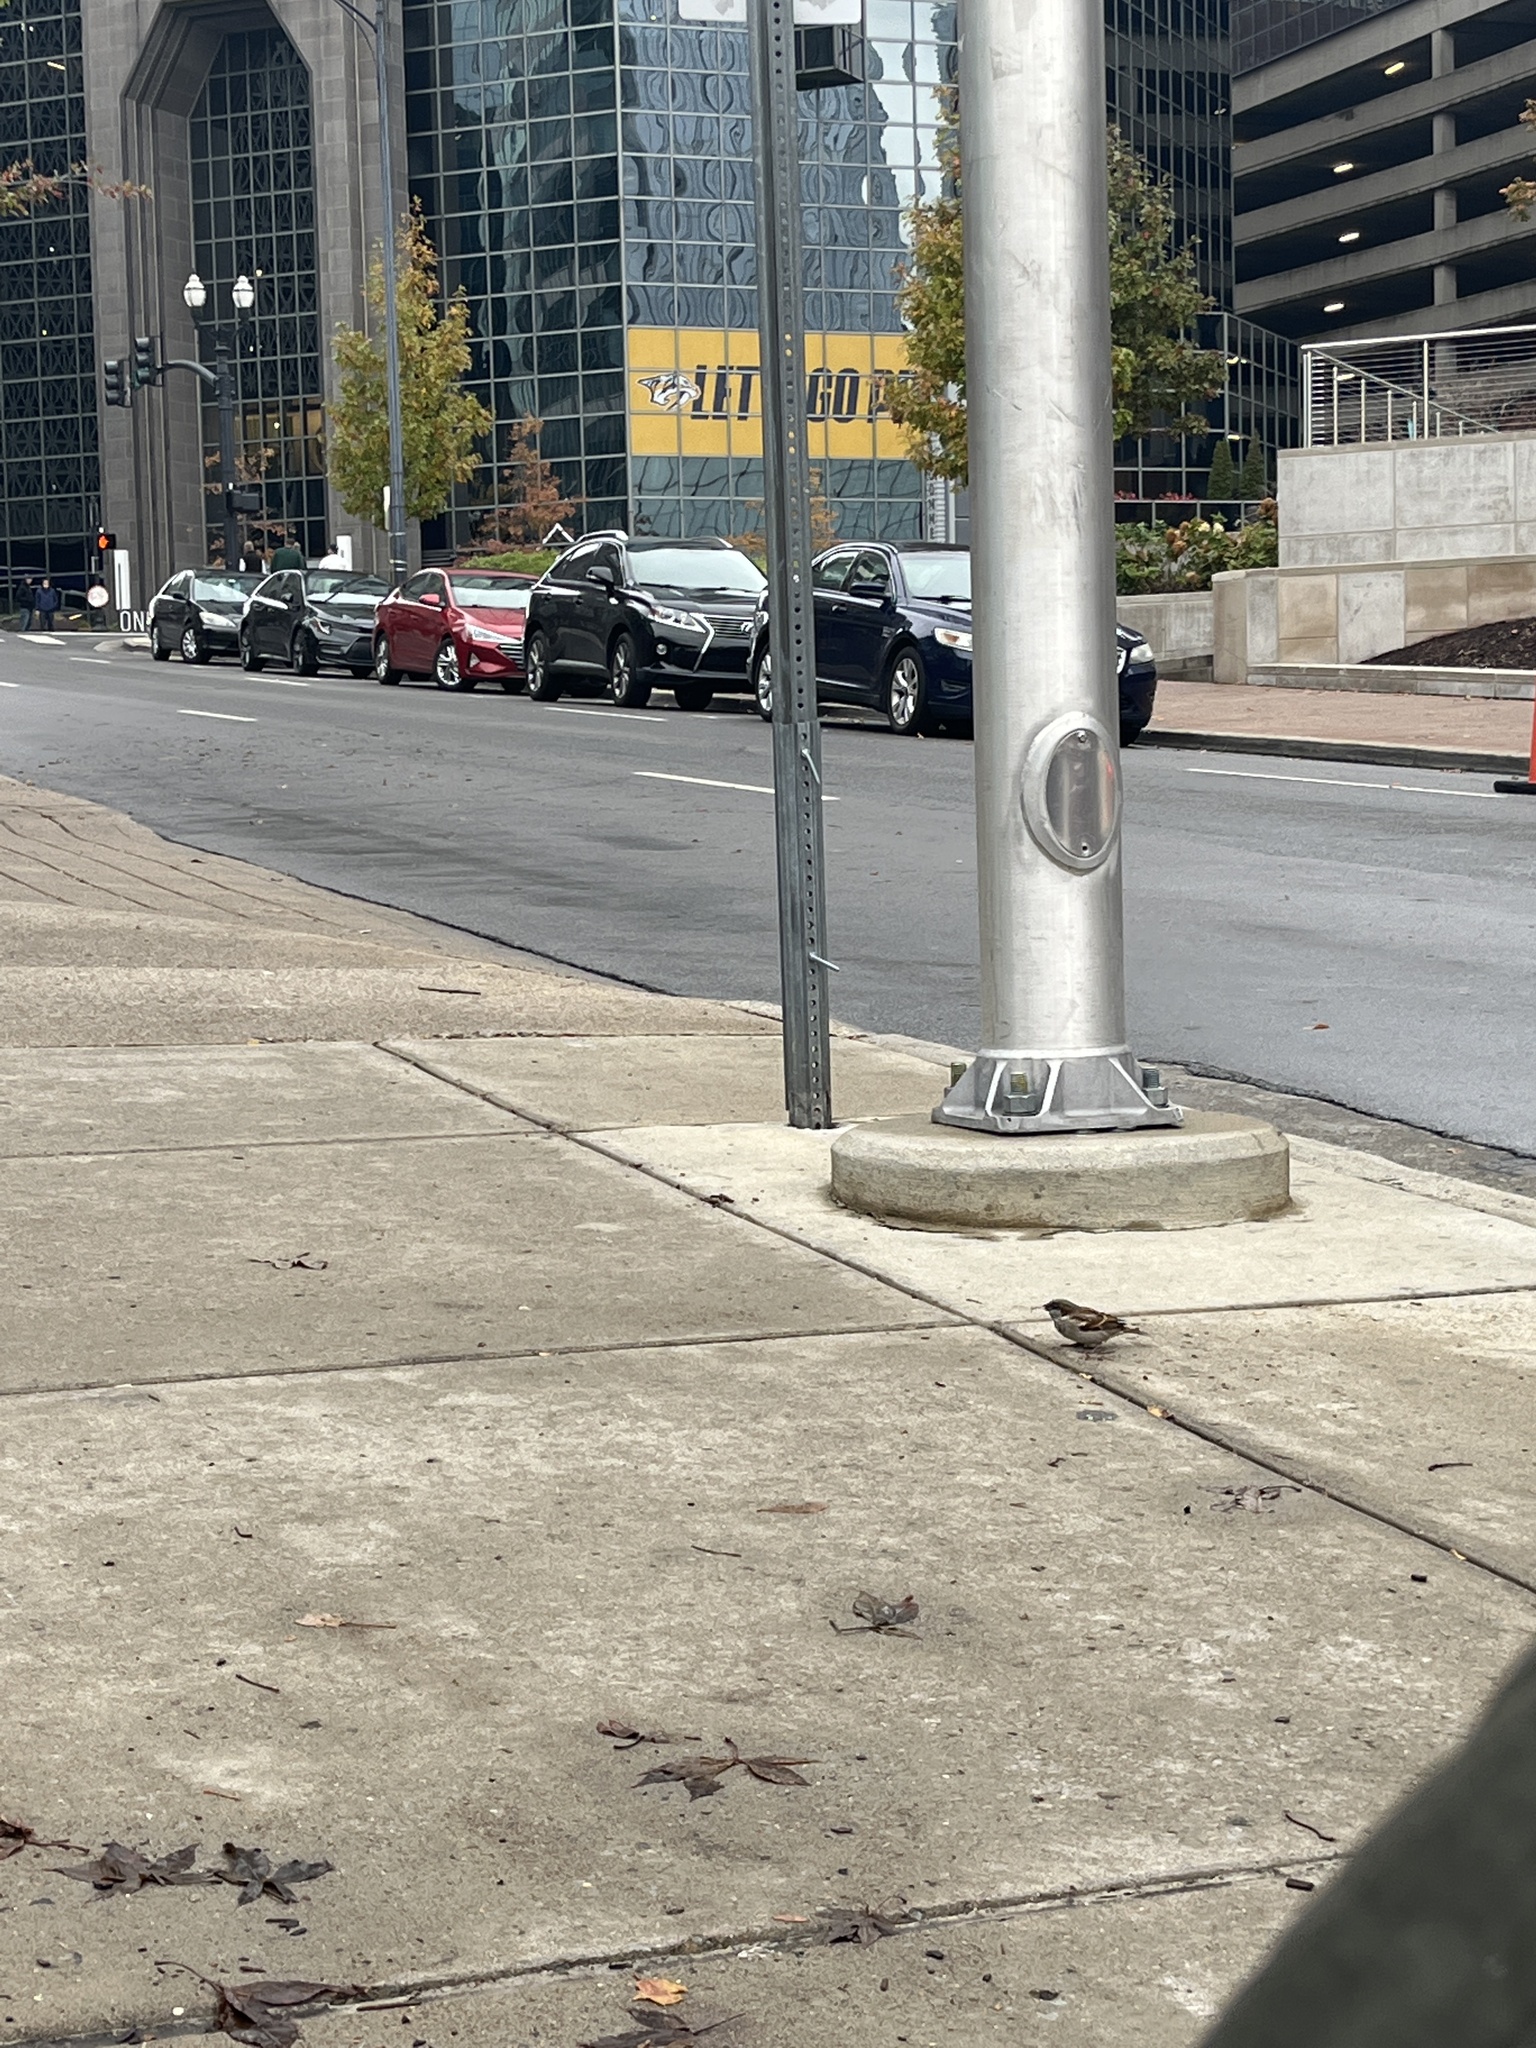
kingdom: Animalia
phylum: Chordata
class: Aves
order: Passeriformes
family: Passeridae
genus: Passer
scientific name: Passer domesticus
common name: House sparrow
